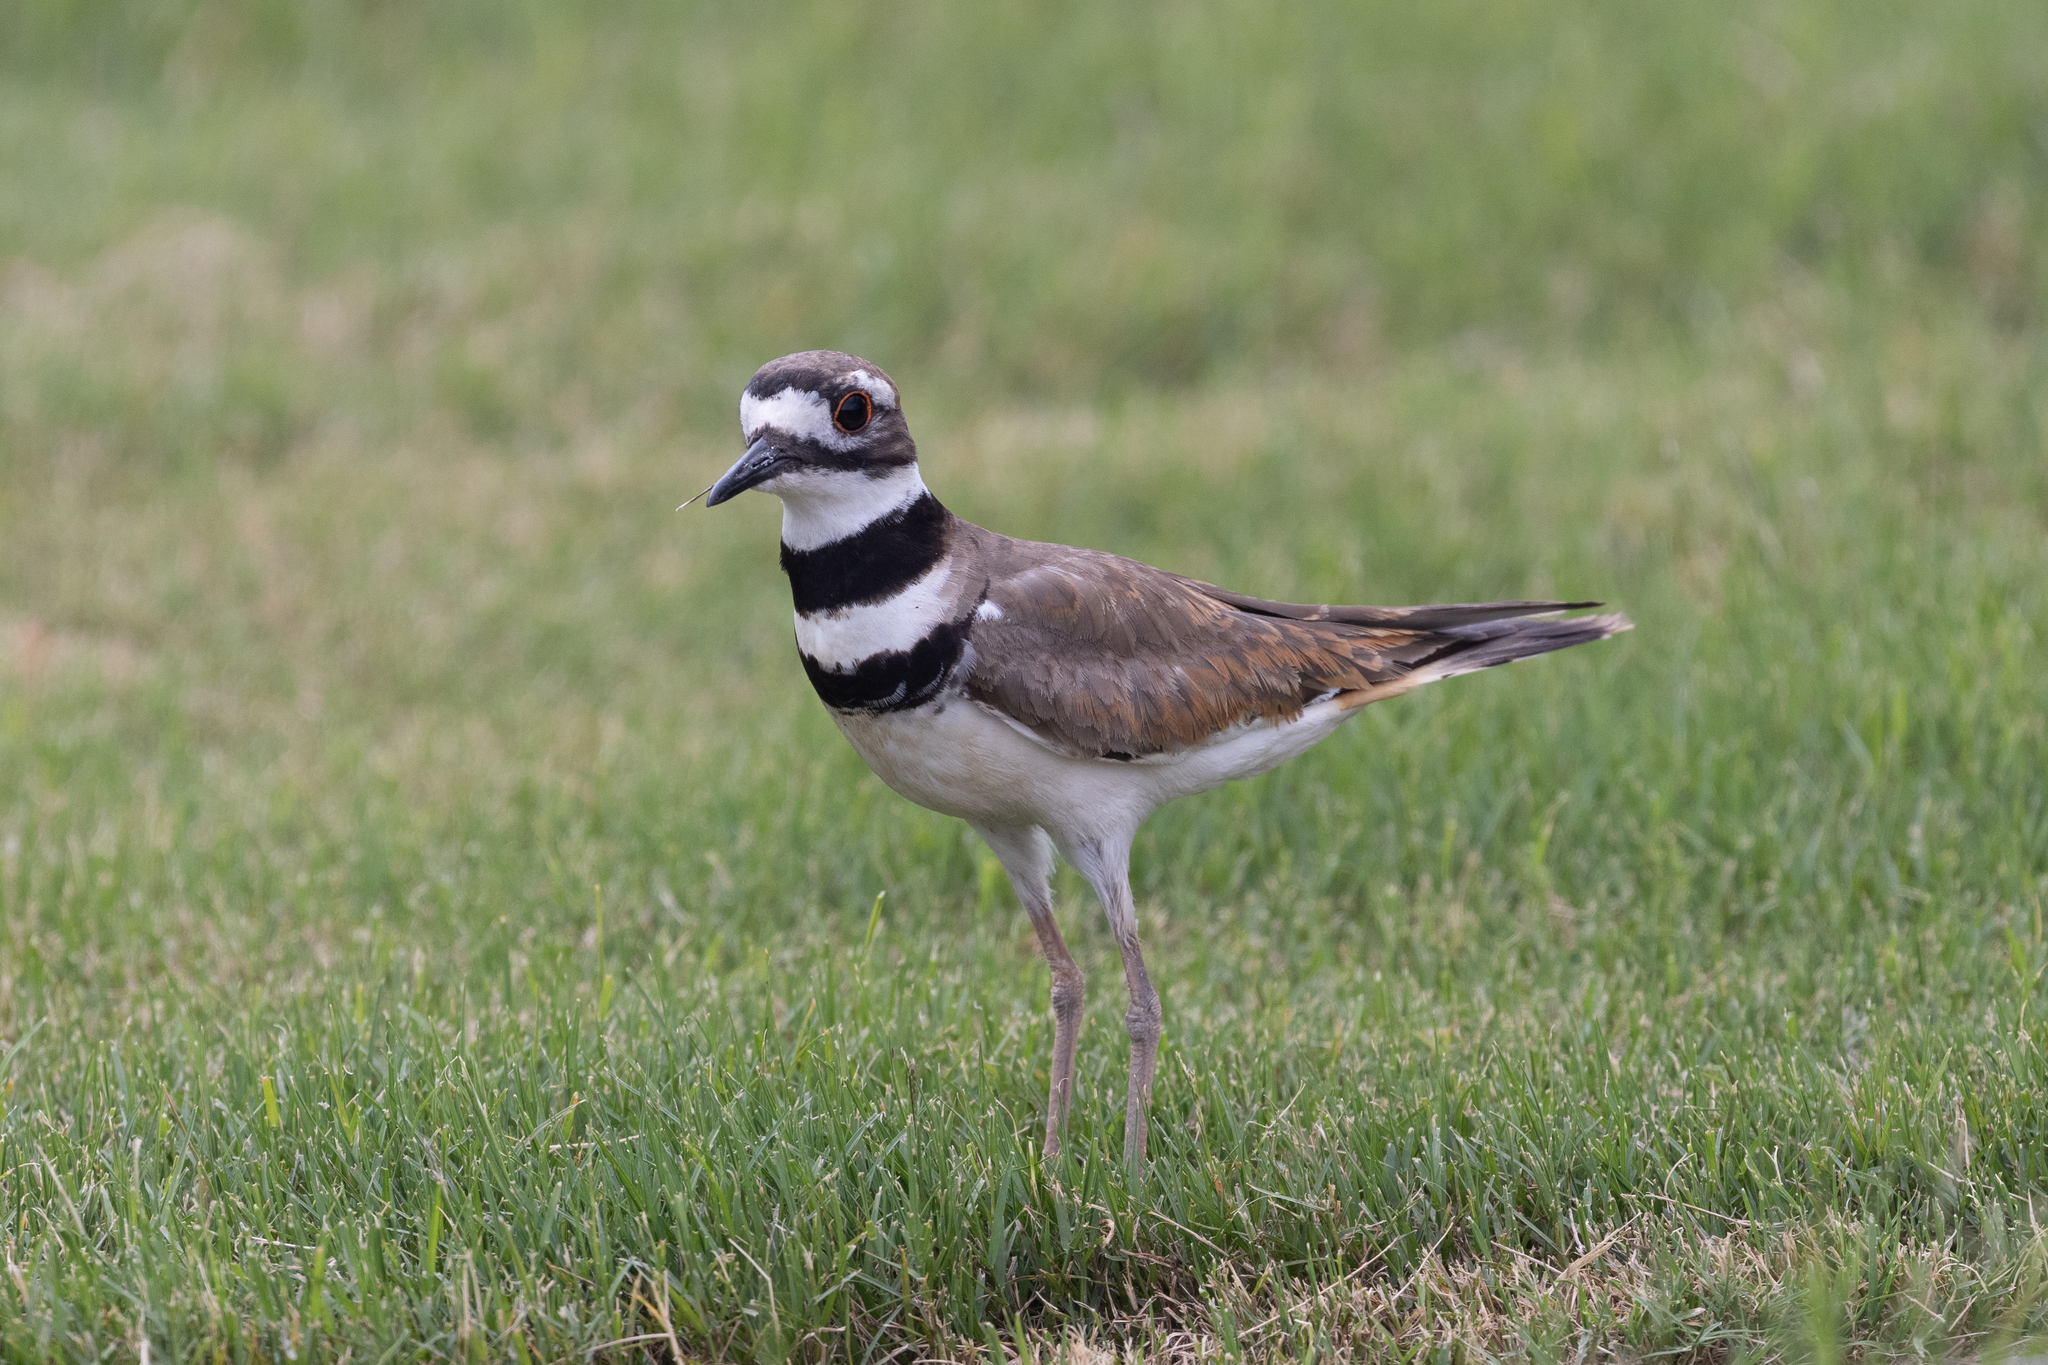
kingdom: Animalia
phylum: Chordata
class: Aves
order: Charadriiformes
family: Charadriidae
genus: Charadrius
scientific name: Charadrius vociferus
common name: Killdeer
